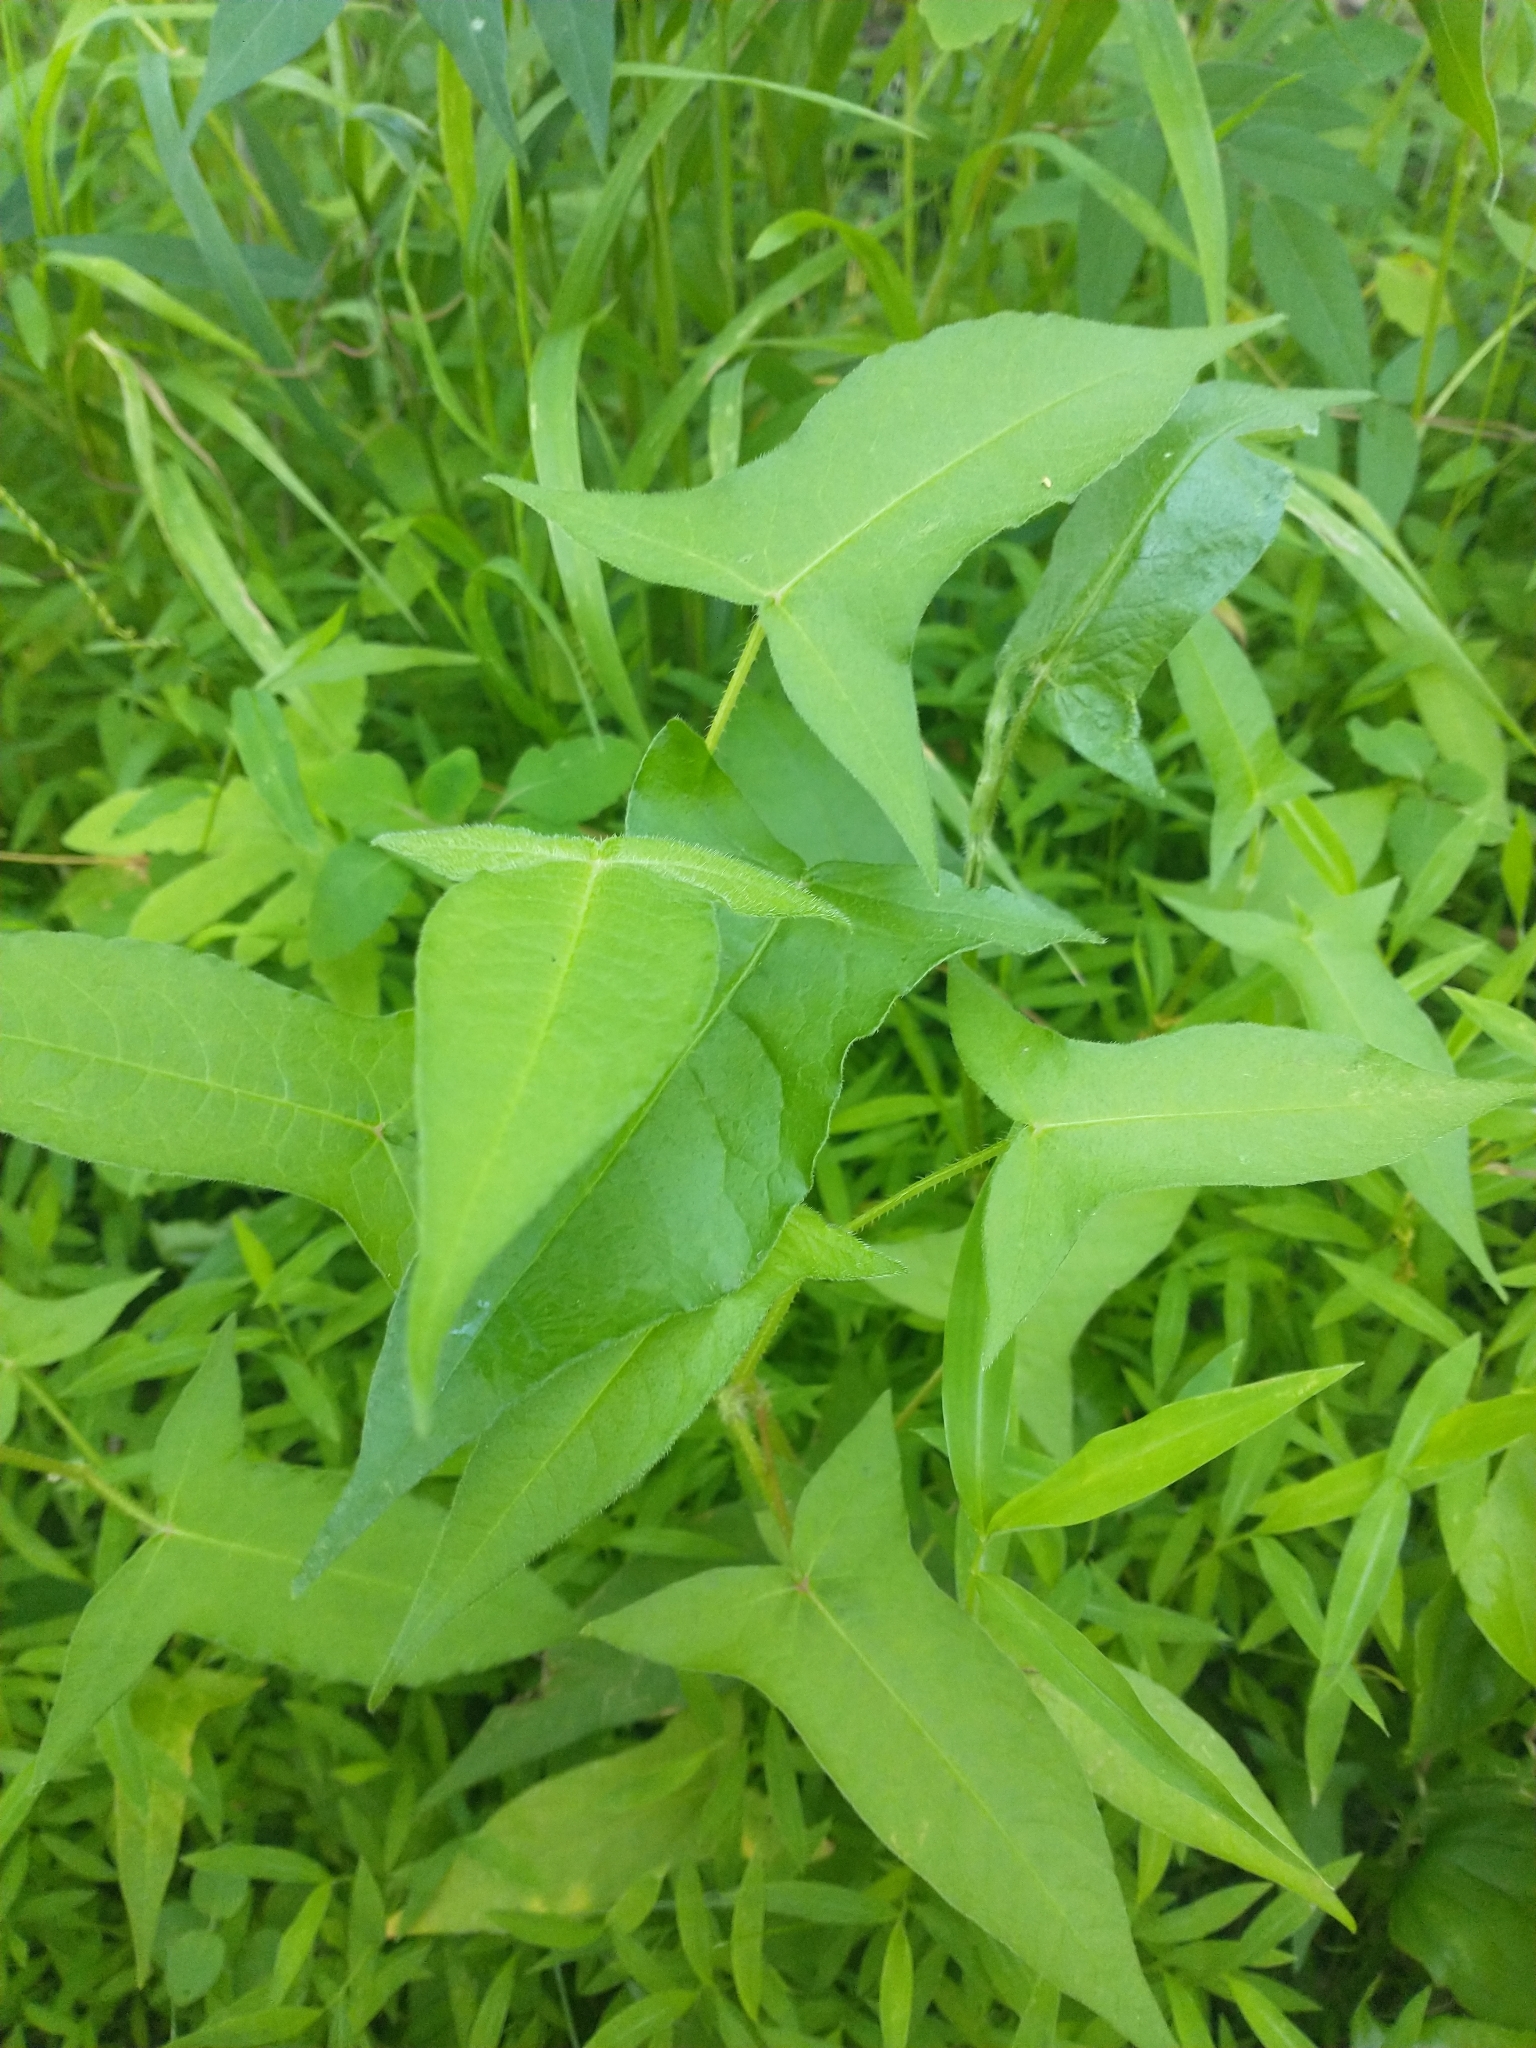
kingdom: Plantae
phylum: Tracheophyta
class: Magnoliopsida
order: Caryophyllales
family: Polygonaceae
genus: Persicaria
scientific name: Persicaria arifolia
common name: Halberd-leaved tear-thumb
